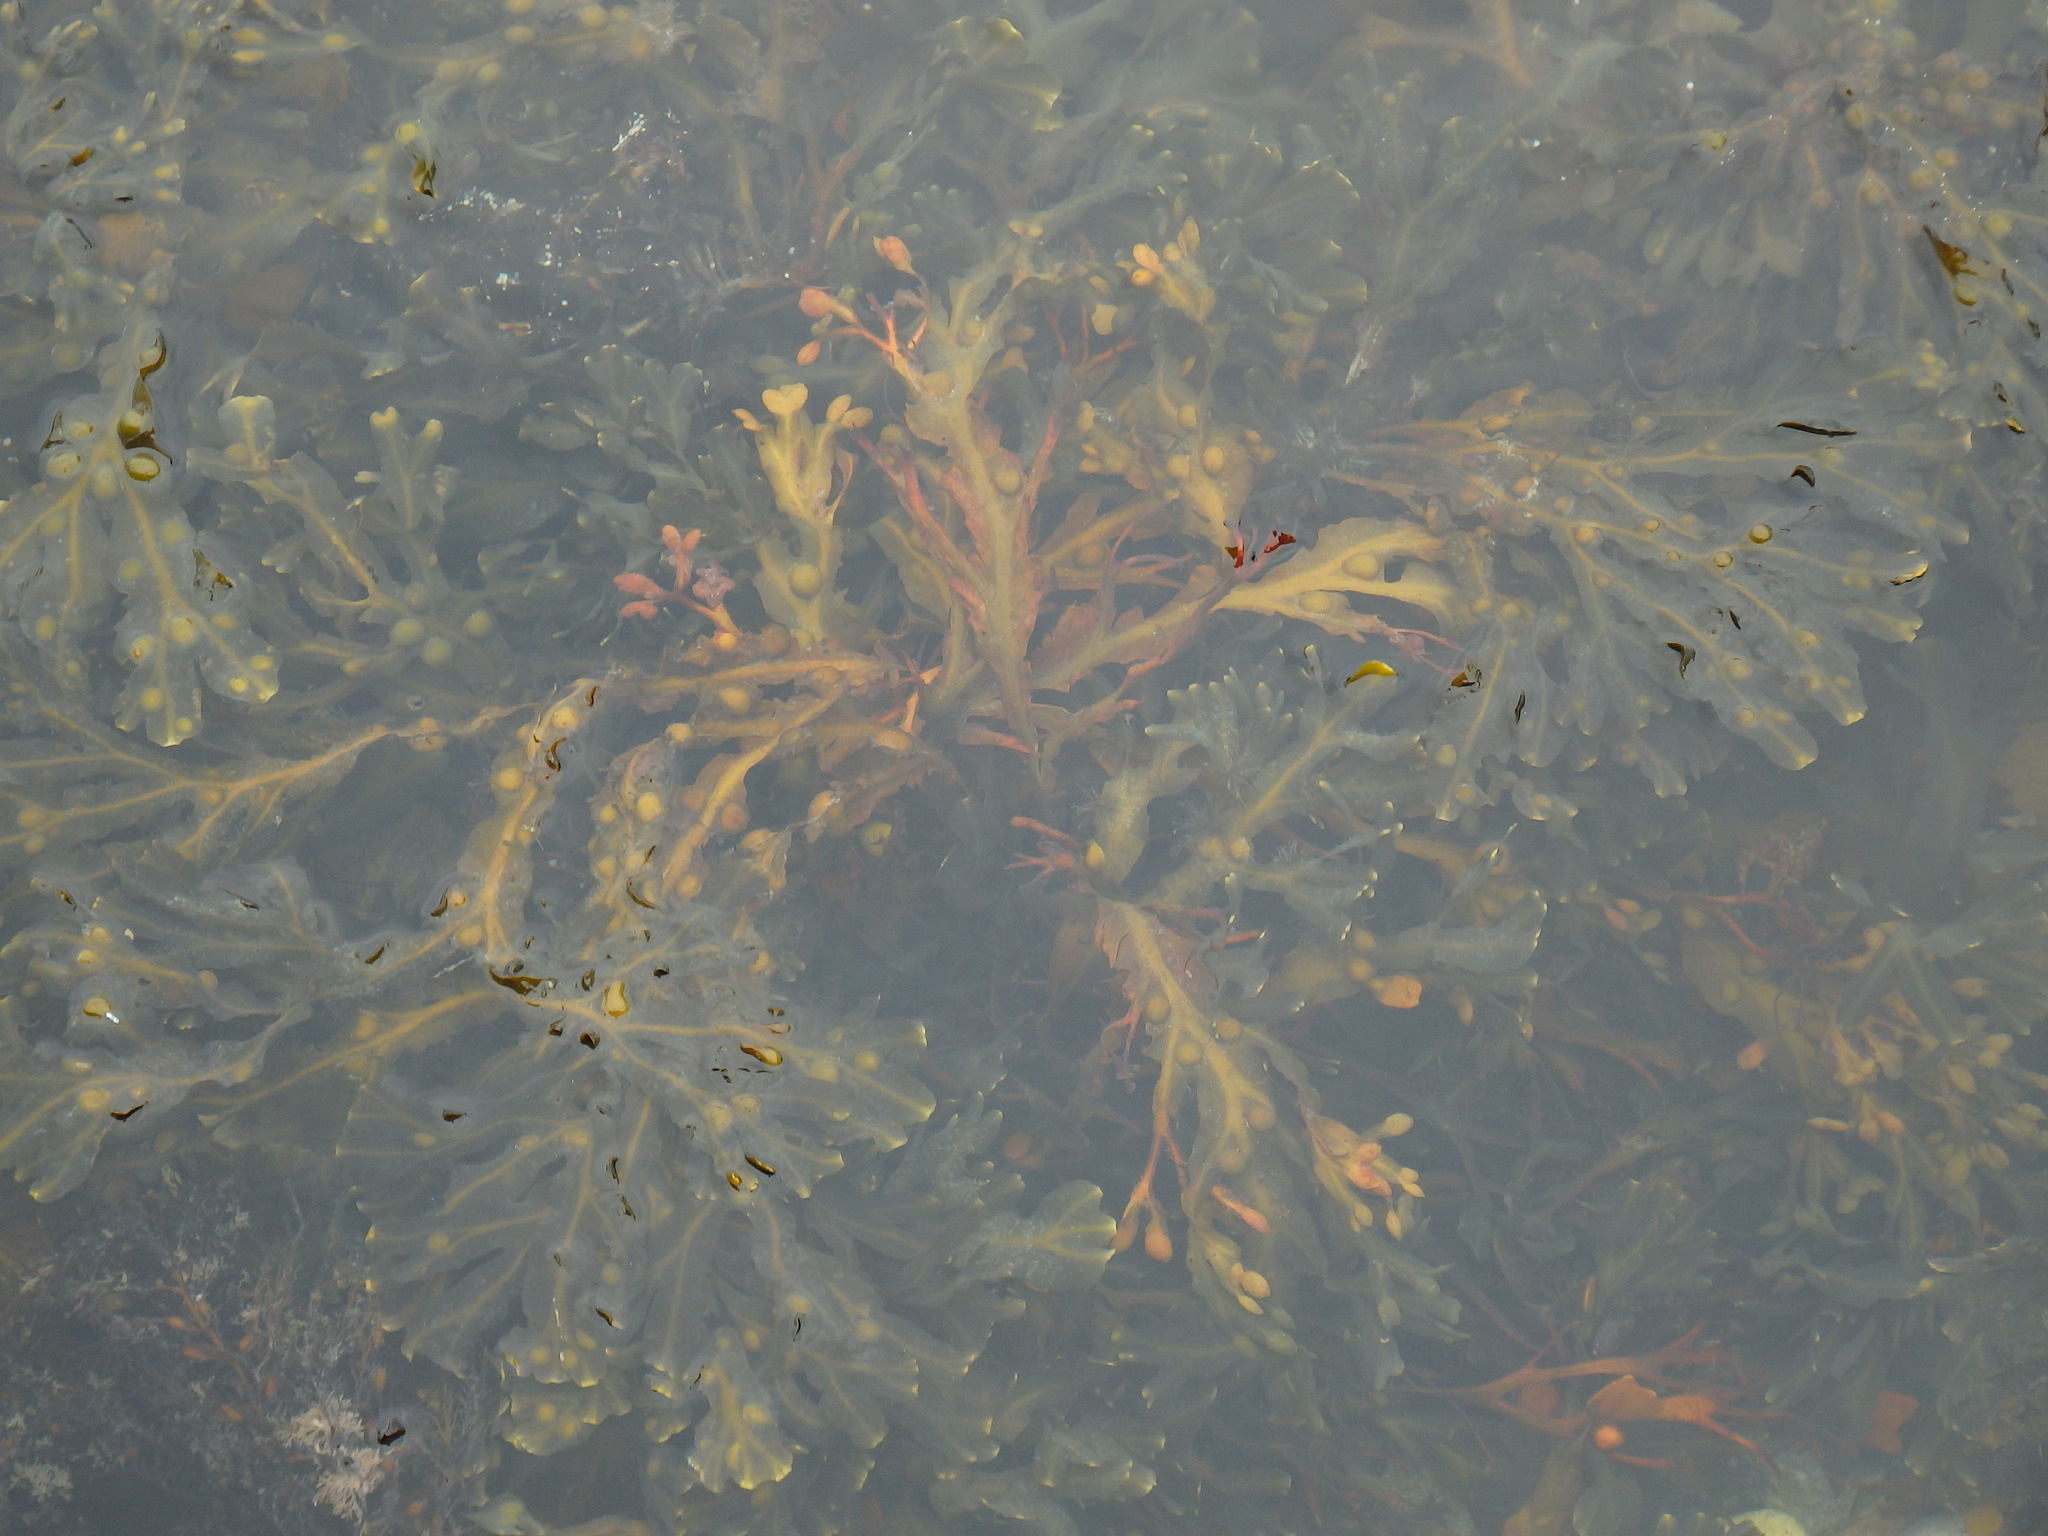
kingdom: Chromista
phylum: Ochrophyta
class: Phaeophyceae
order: Fucales
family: Fucaceae
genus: Fucus
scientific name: Fucus vesiculosus
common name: Bladder wrack
